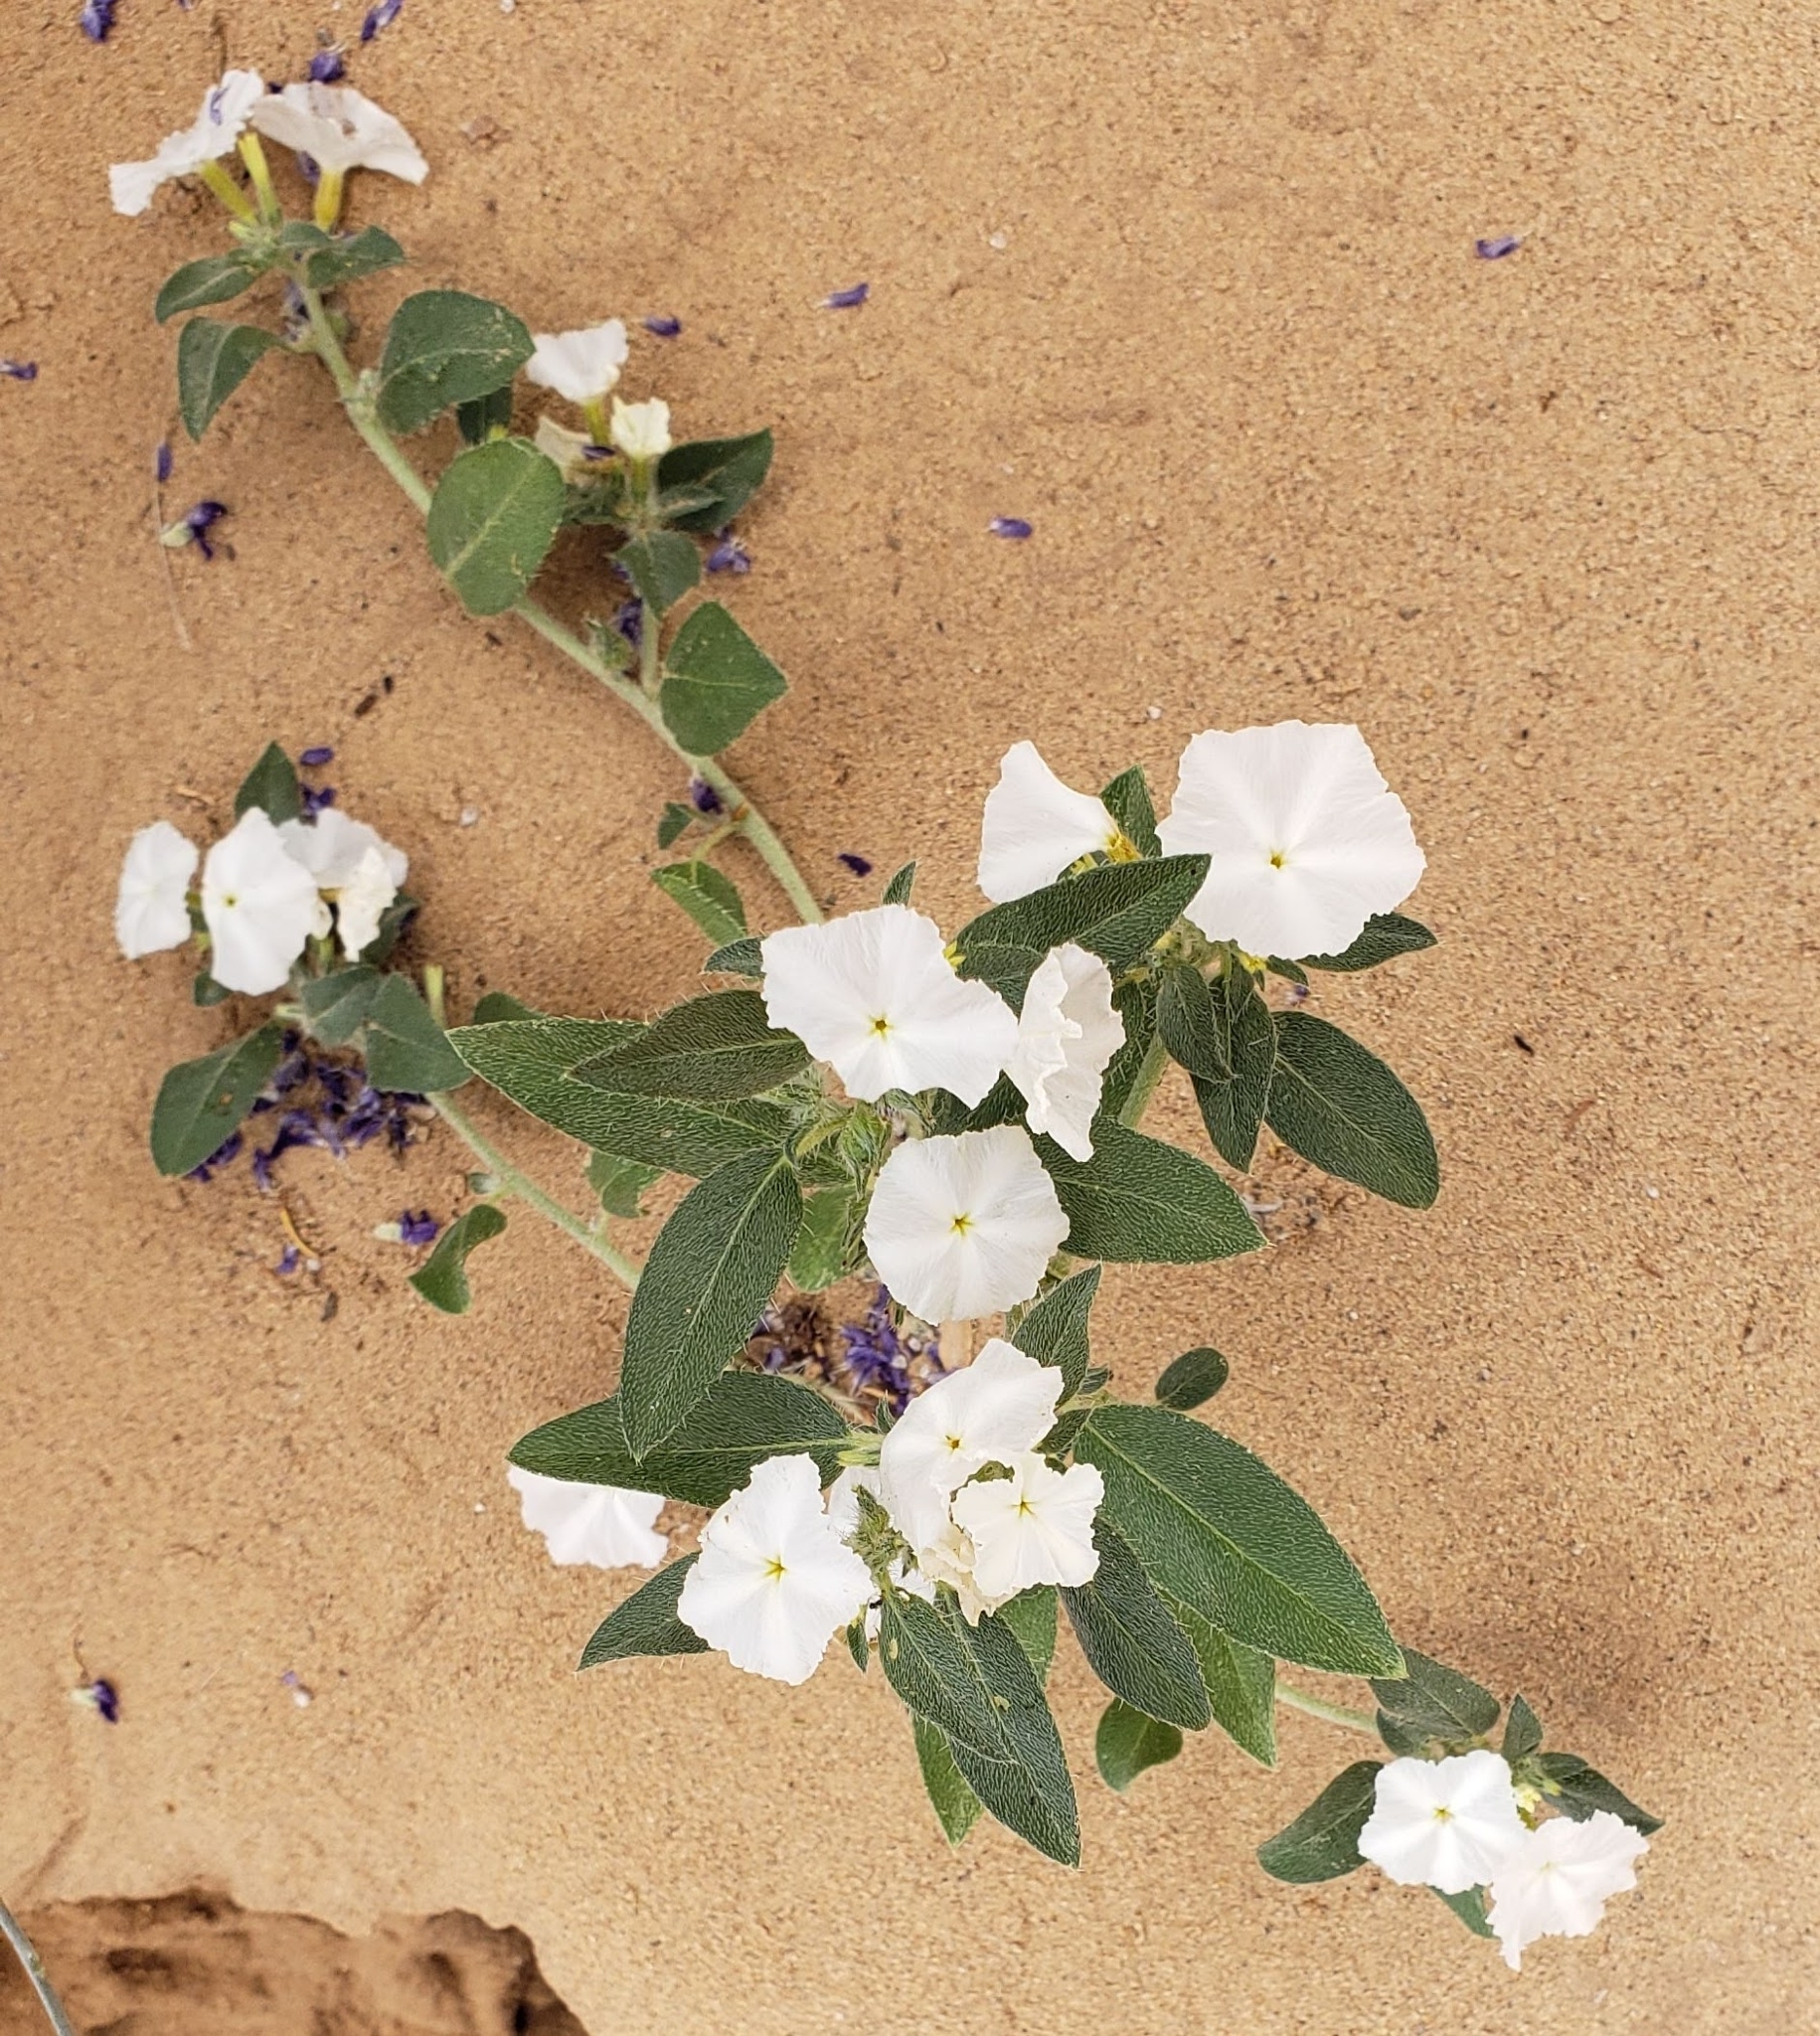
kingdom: Plantae
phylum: Tracheophyta
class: Magnoliopsida
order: Boraginales
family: Heliotropiaceae
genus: Euploca
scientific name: Euploca convolvulacea
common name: Bindweed heliotrope
